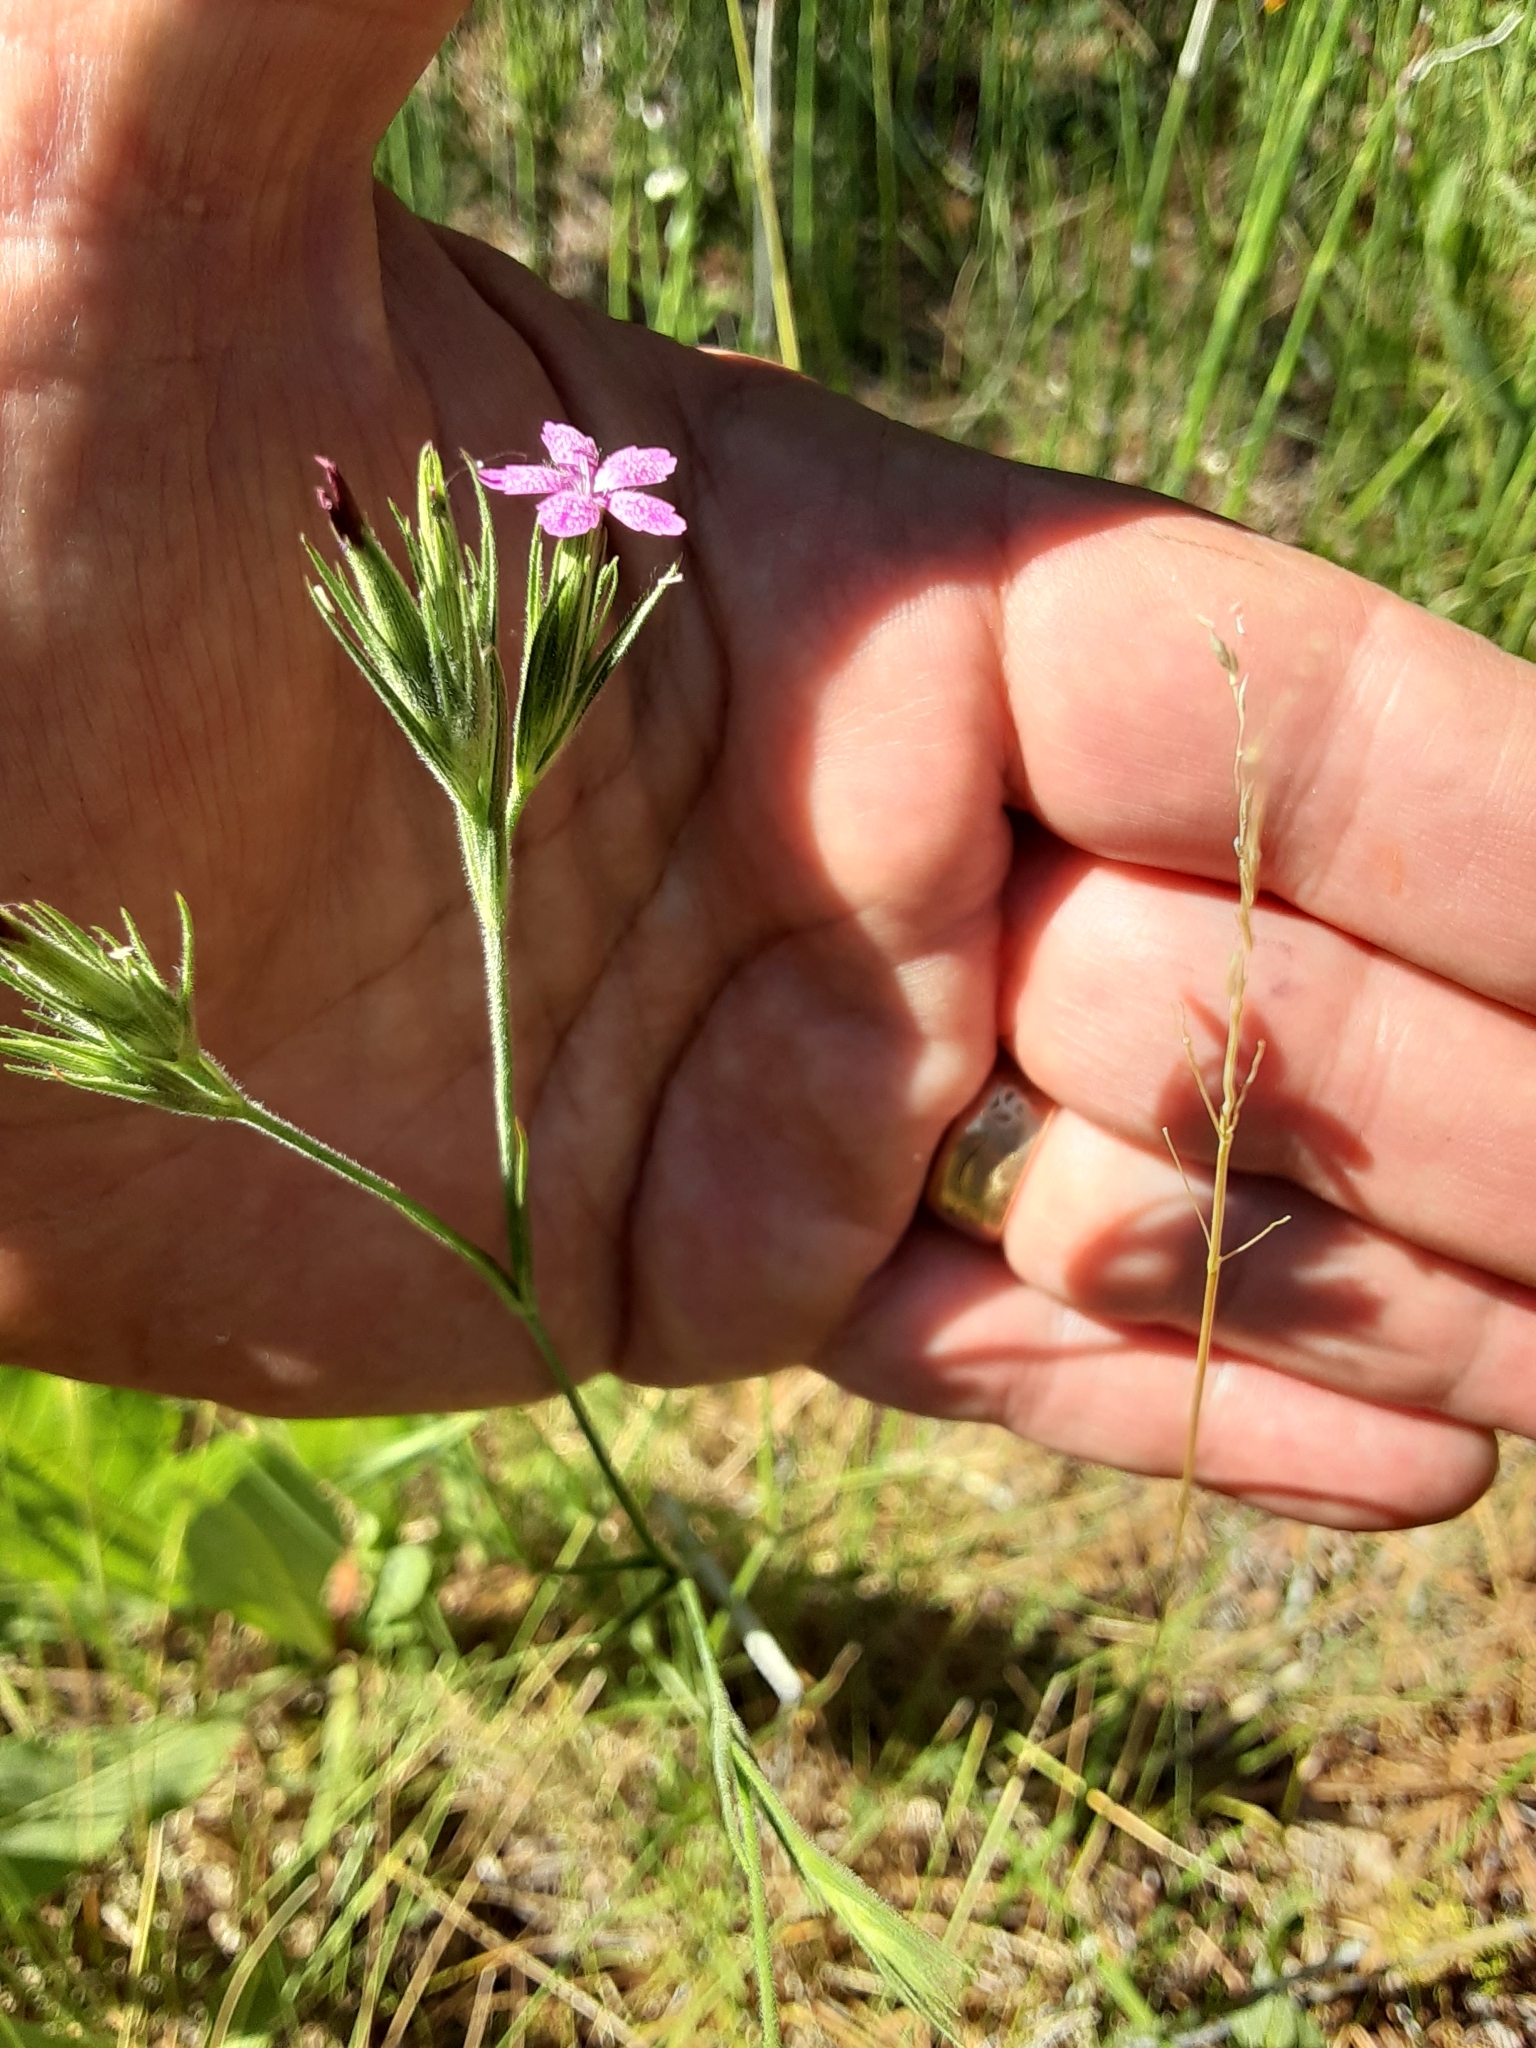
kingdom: Plantae
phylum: Tracheophyta
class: Magnoliopsida
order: Caryophyllales
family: Caryophyllaceae
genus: Dianthus
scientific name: Dianthus armeria
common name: Deptford pink
